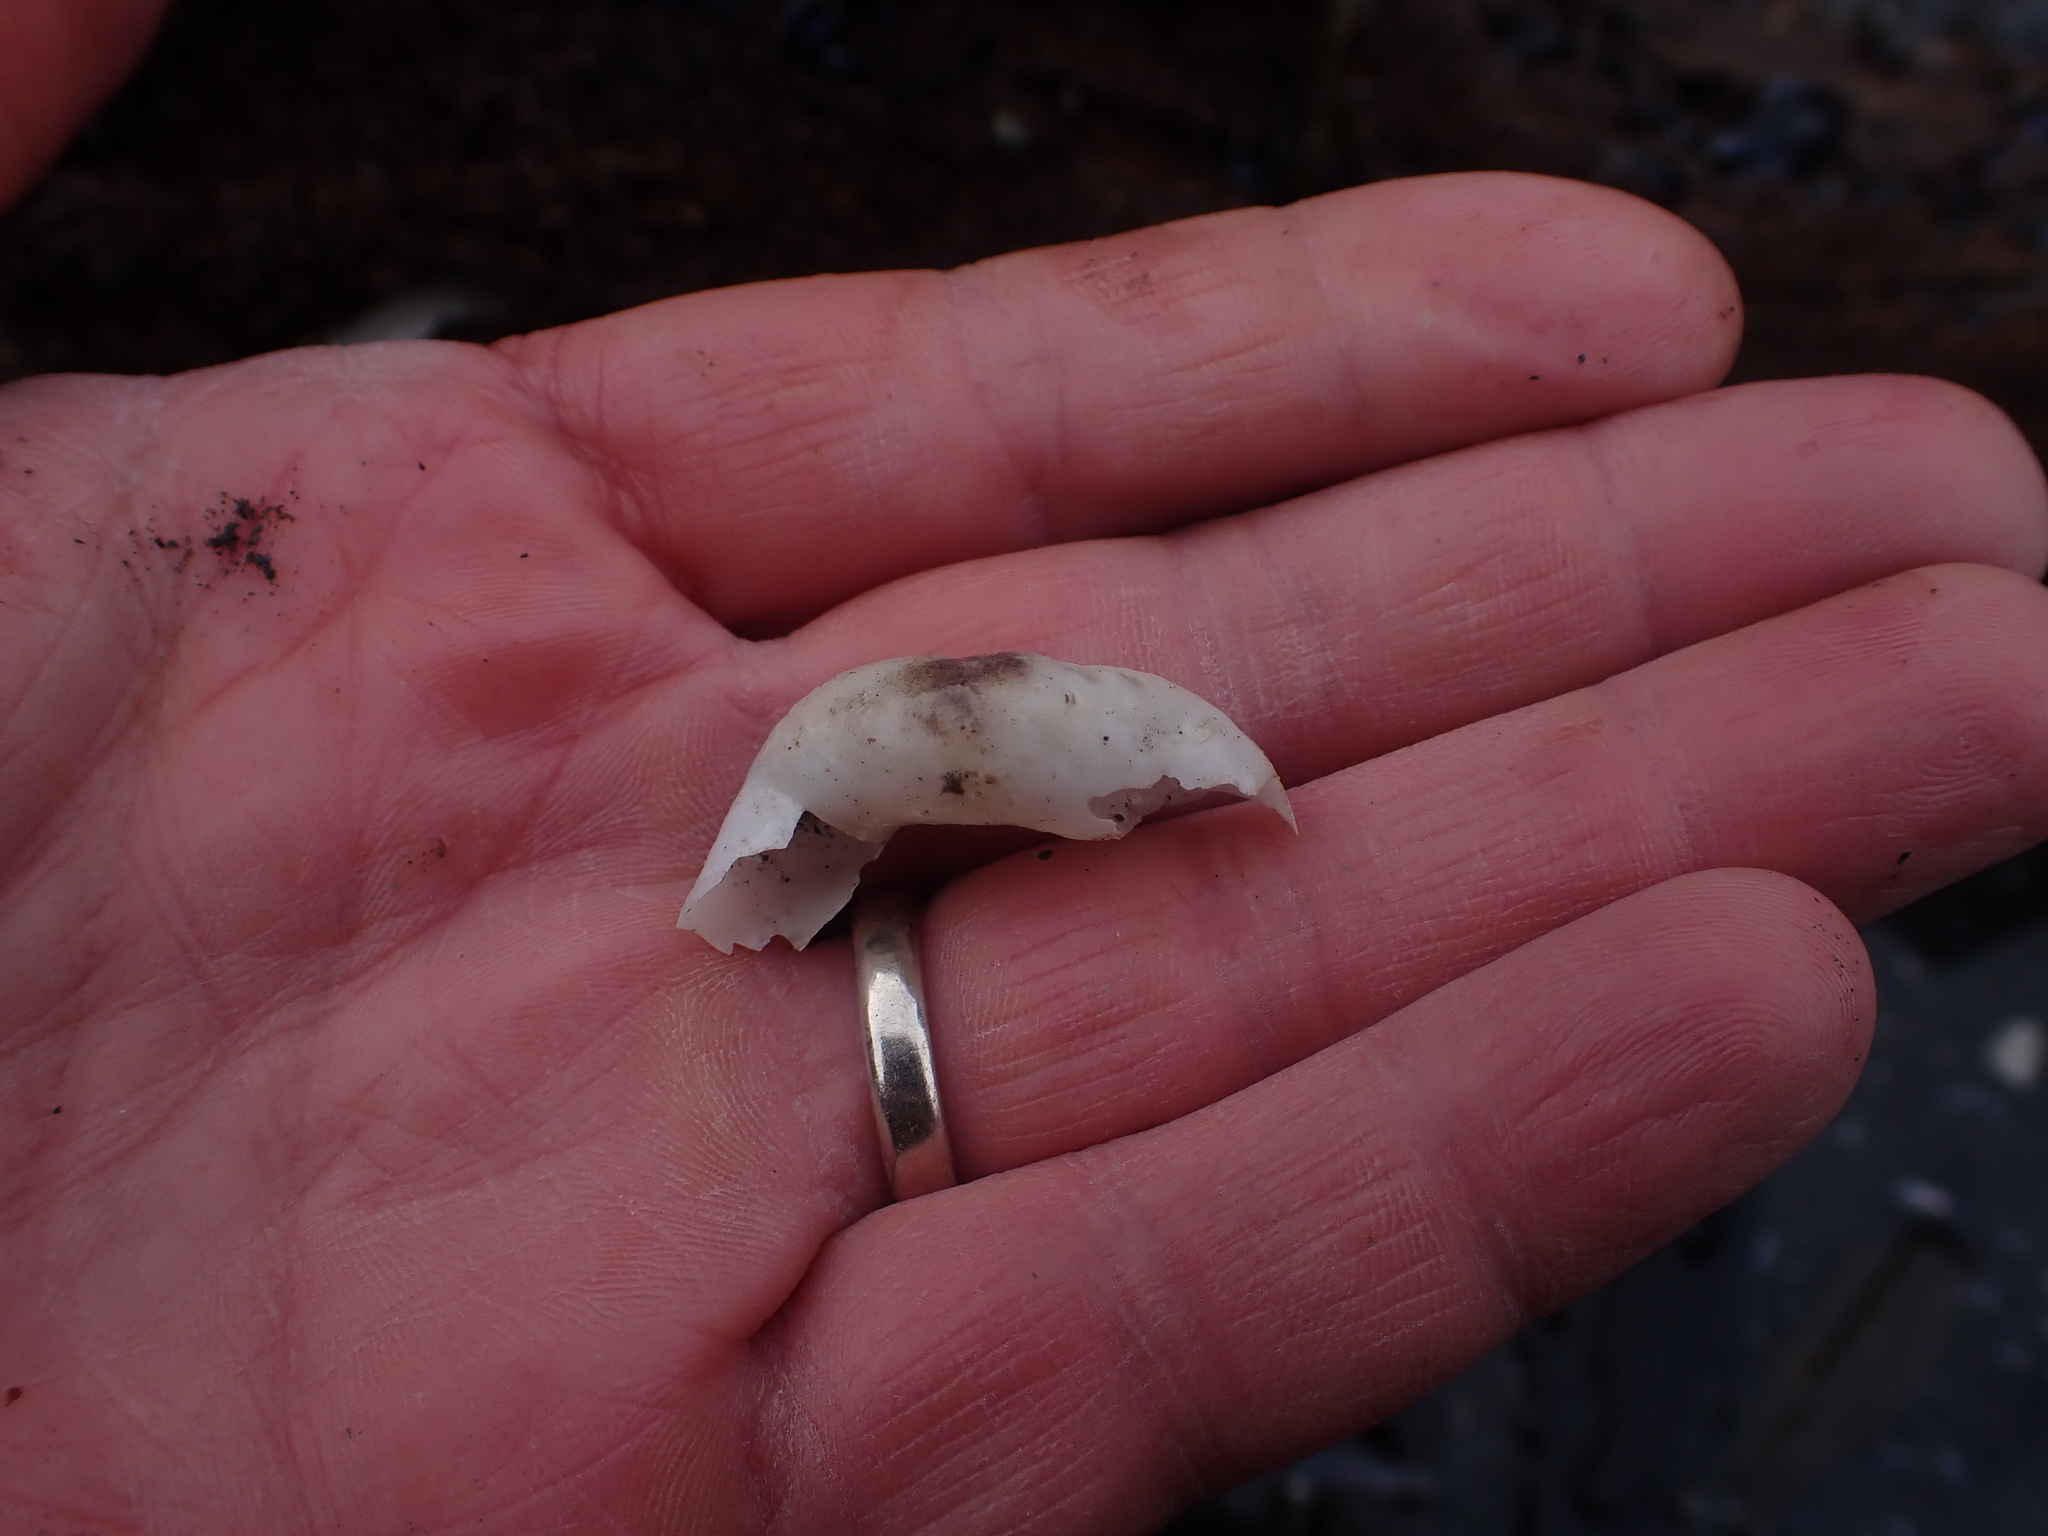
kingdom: Animalia
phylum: Mollusca
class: Bivalvia
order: Myida
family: Teredinidae
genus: Bankia
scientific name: Bankia setacea
